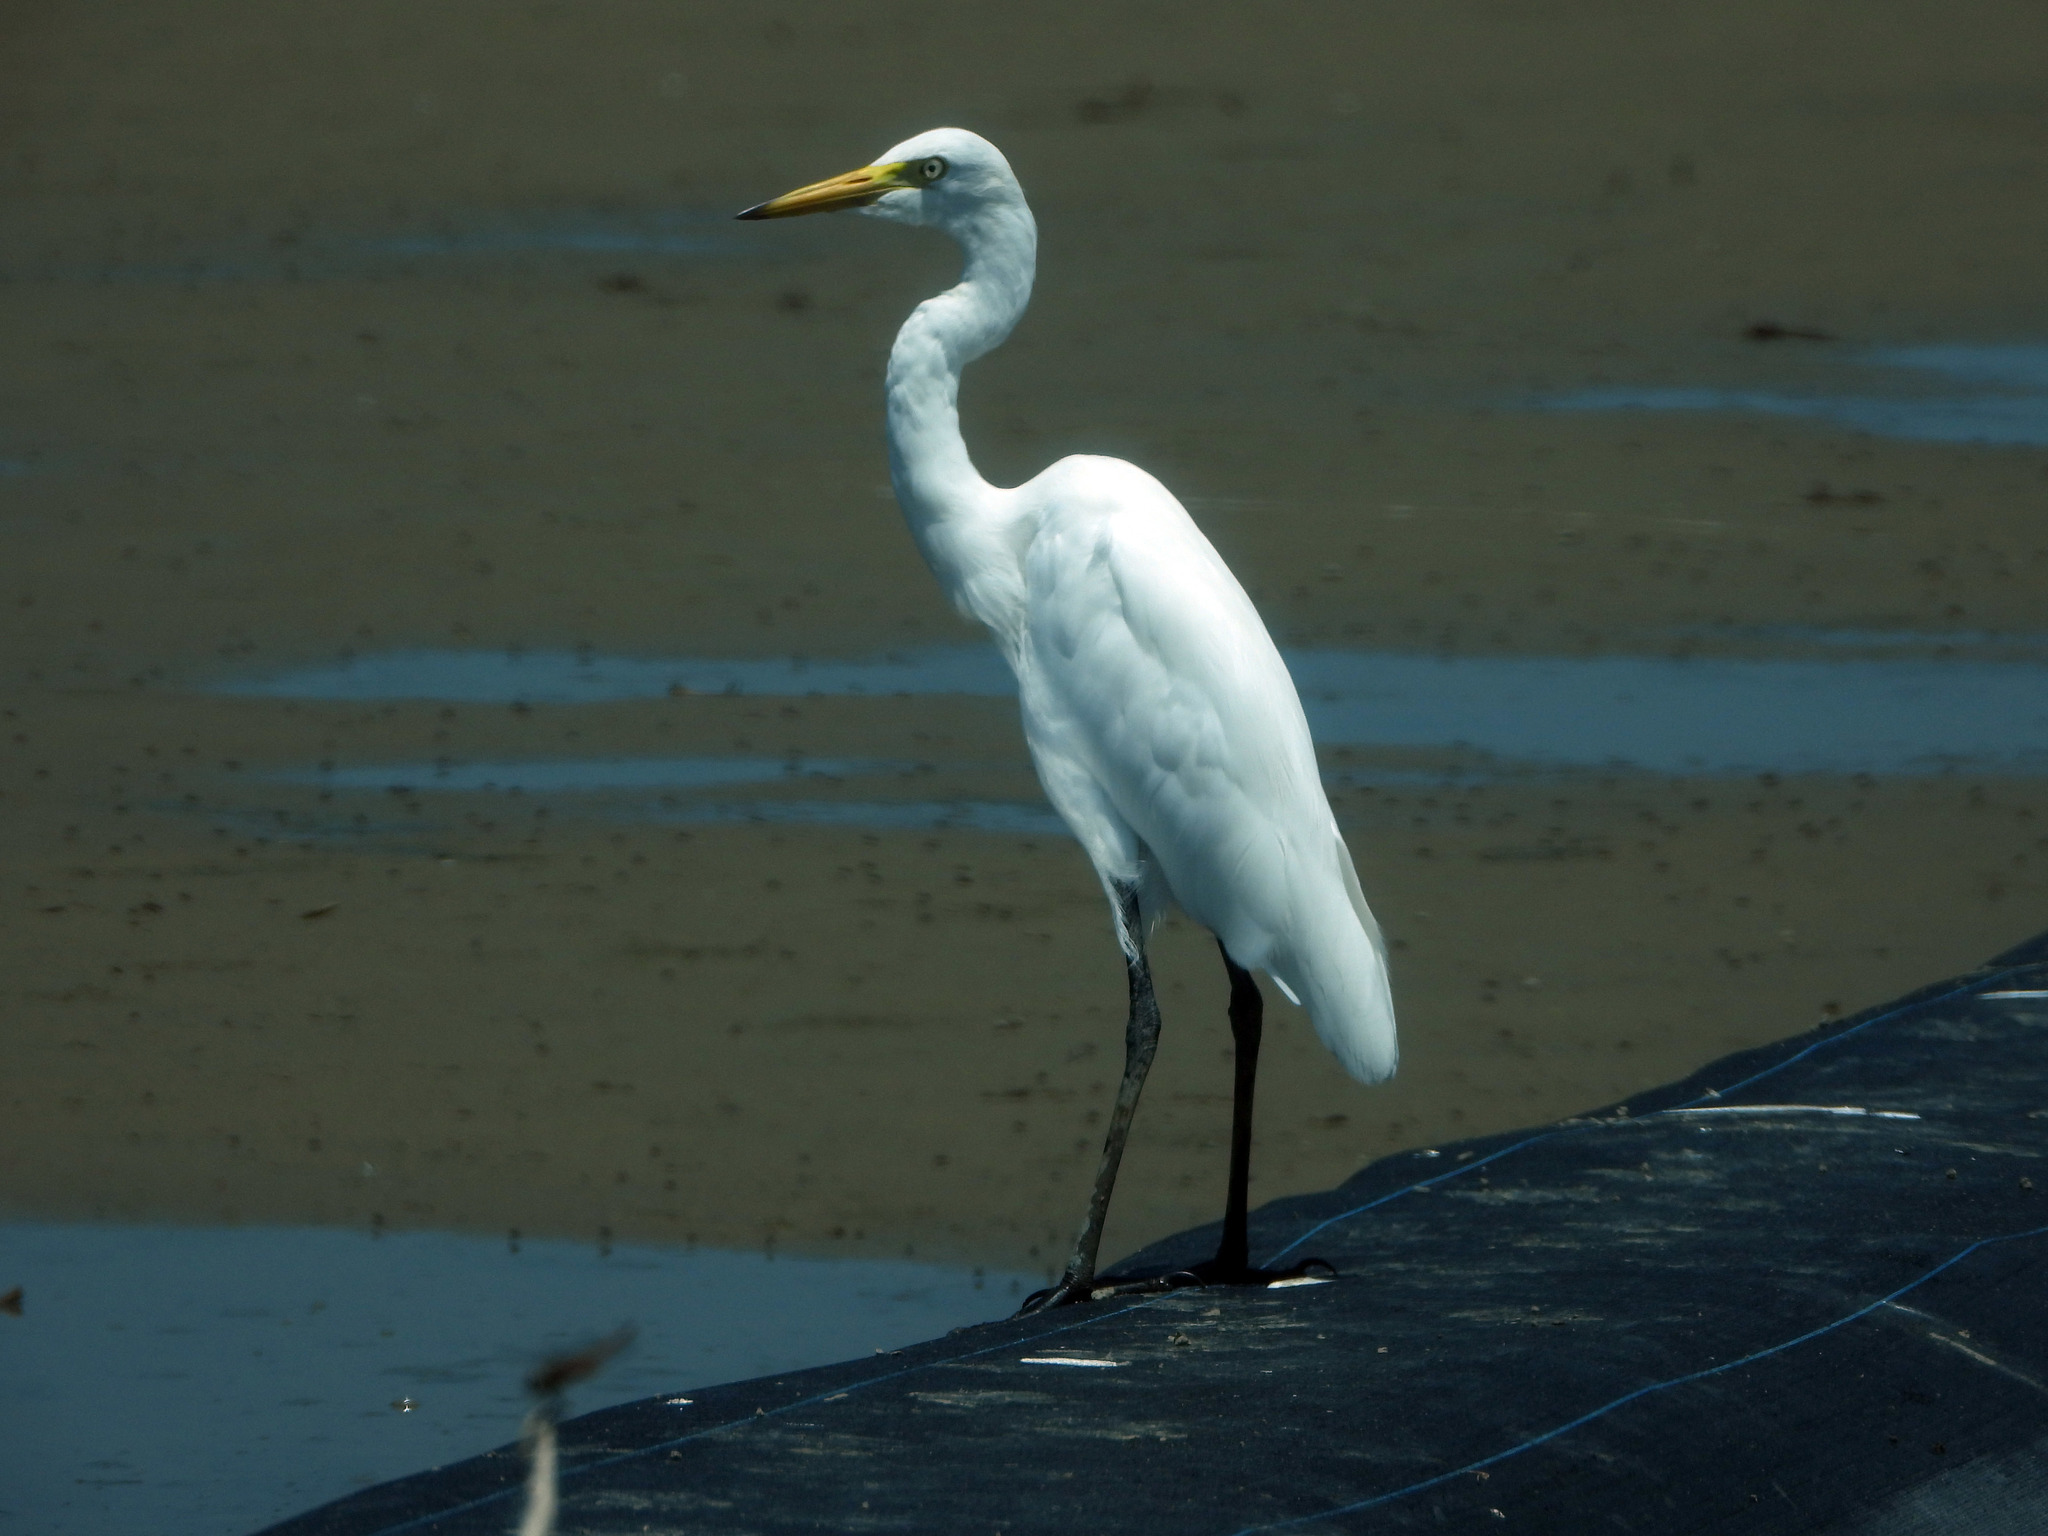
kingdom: Animalia
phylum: Chordata
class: Aves
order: Pelecaniformes
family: Ardeidae
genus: Egretta
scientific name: Egretta intermedia
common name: Intermediate egret
